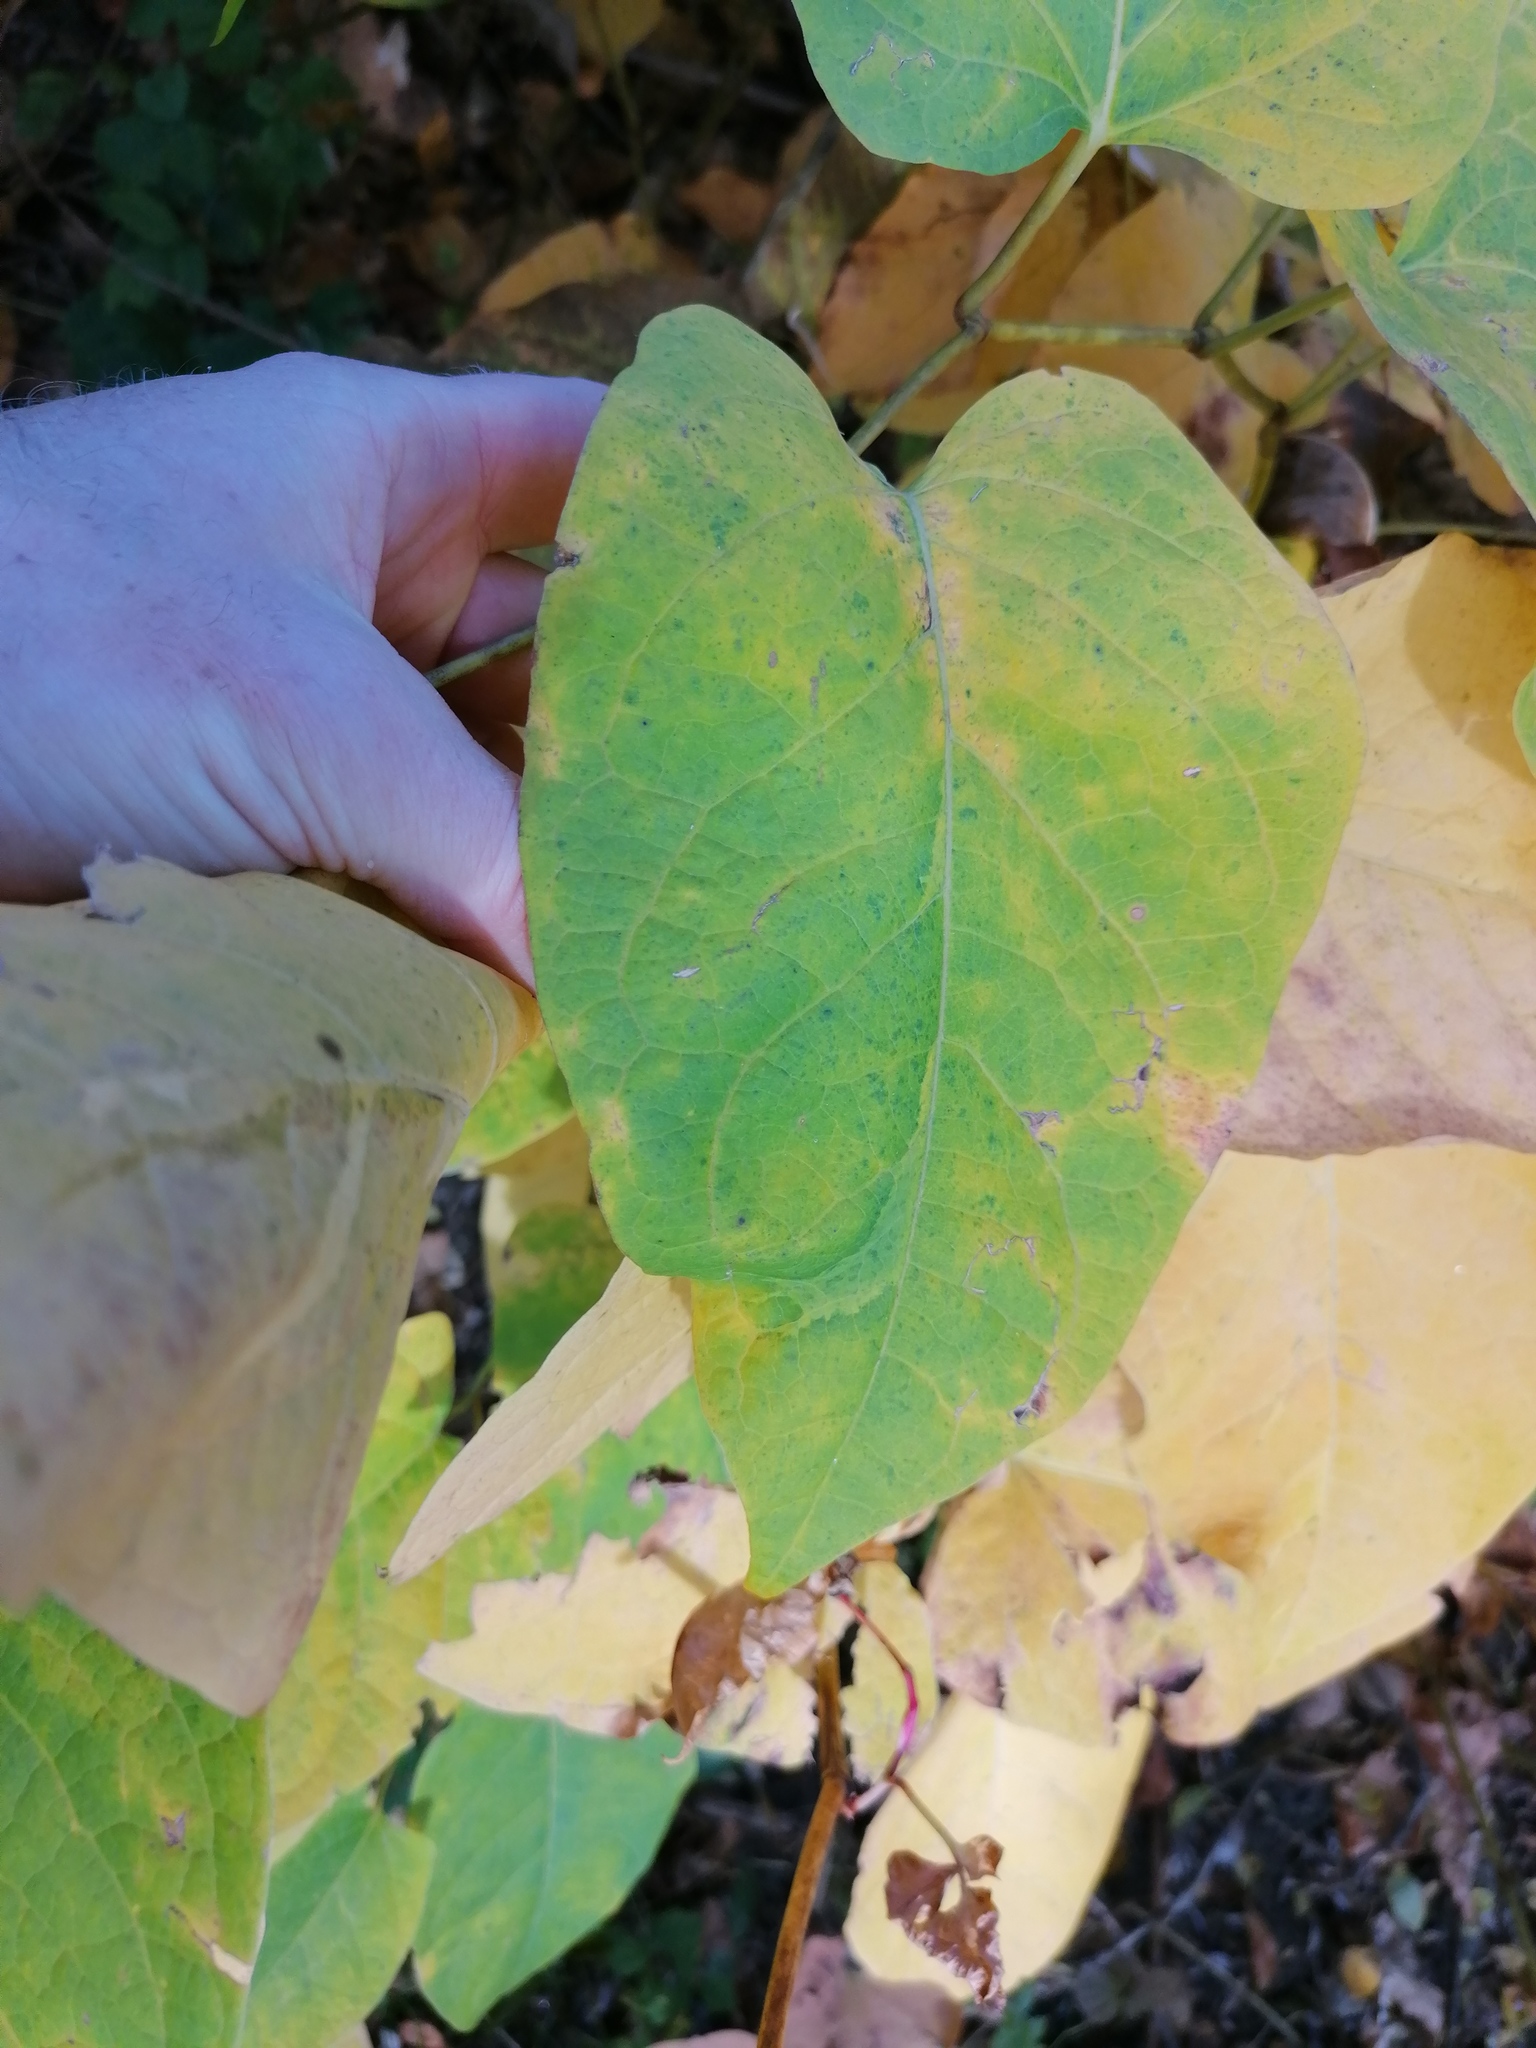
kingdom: Plantae
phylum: Tracheophyta
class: Magnoliopsida
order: Caryophyllales
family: Polygonaceae
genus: Reynoutria
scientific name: Reynoutria bohemica
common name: Bohemian knotweed
